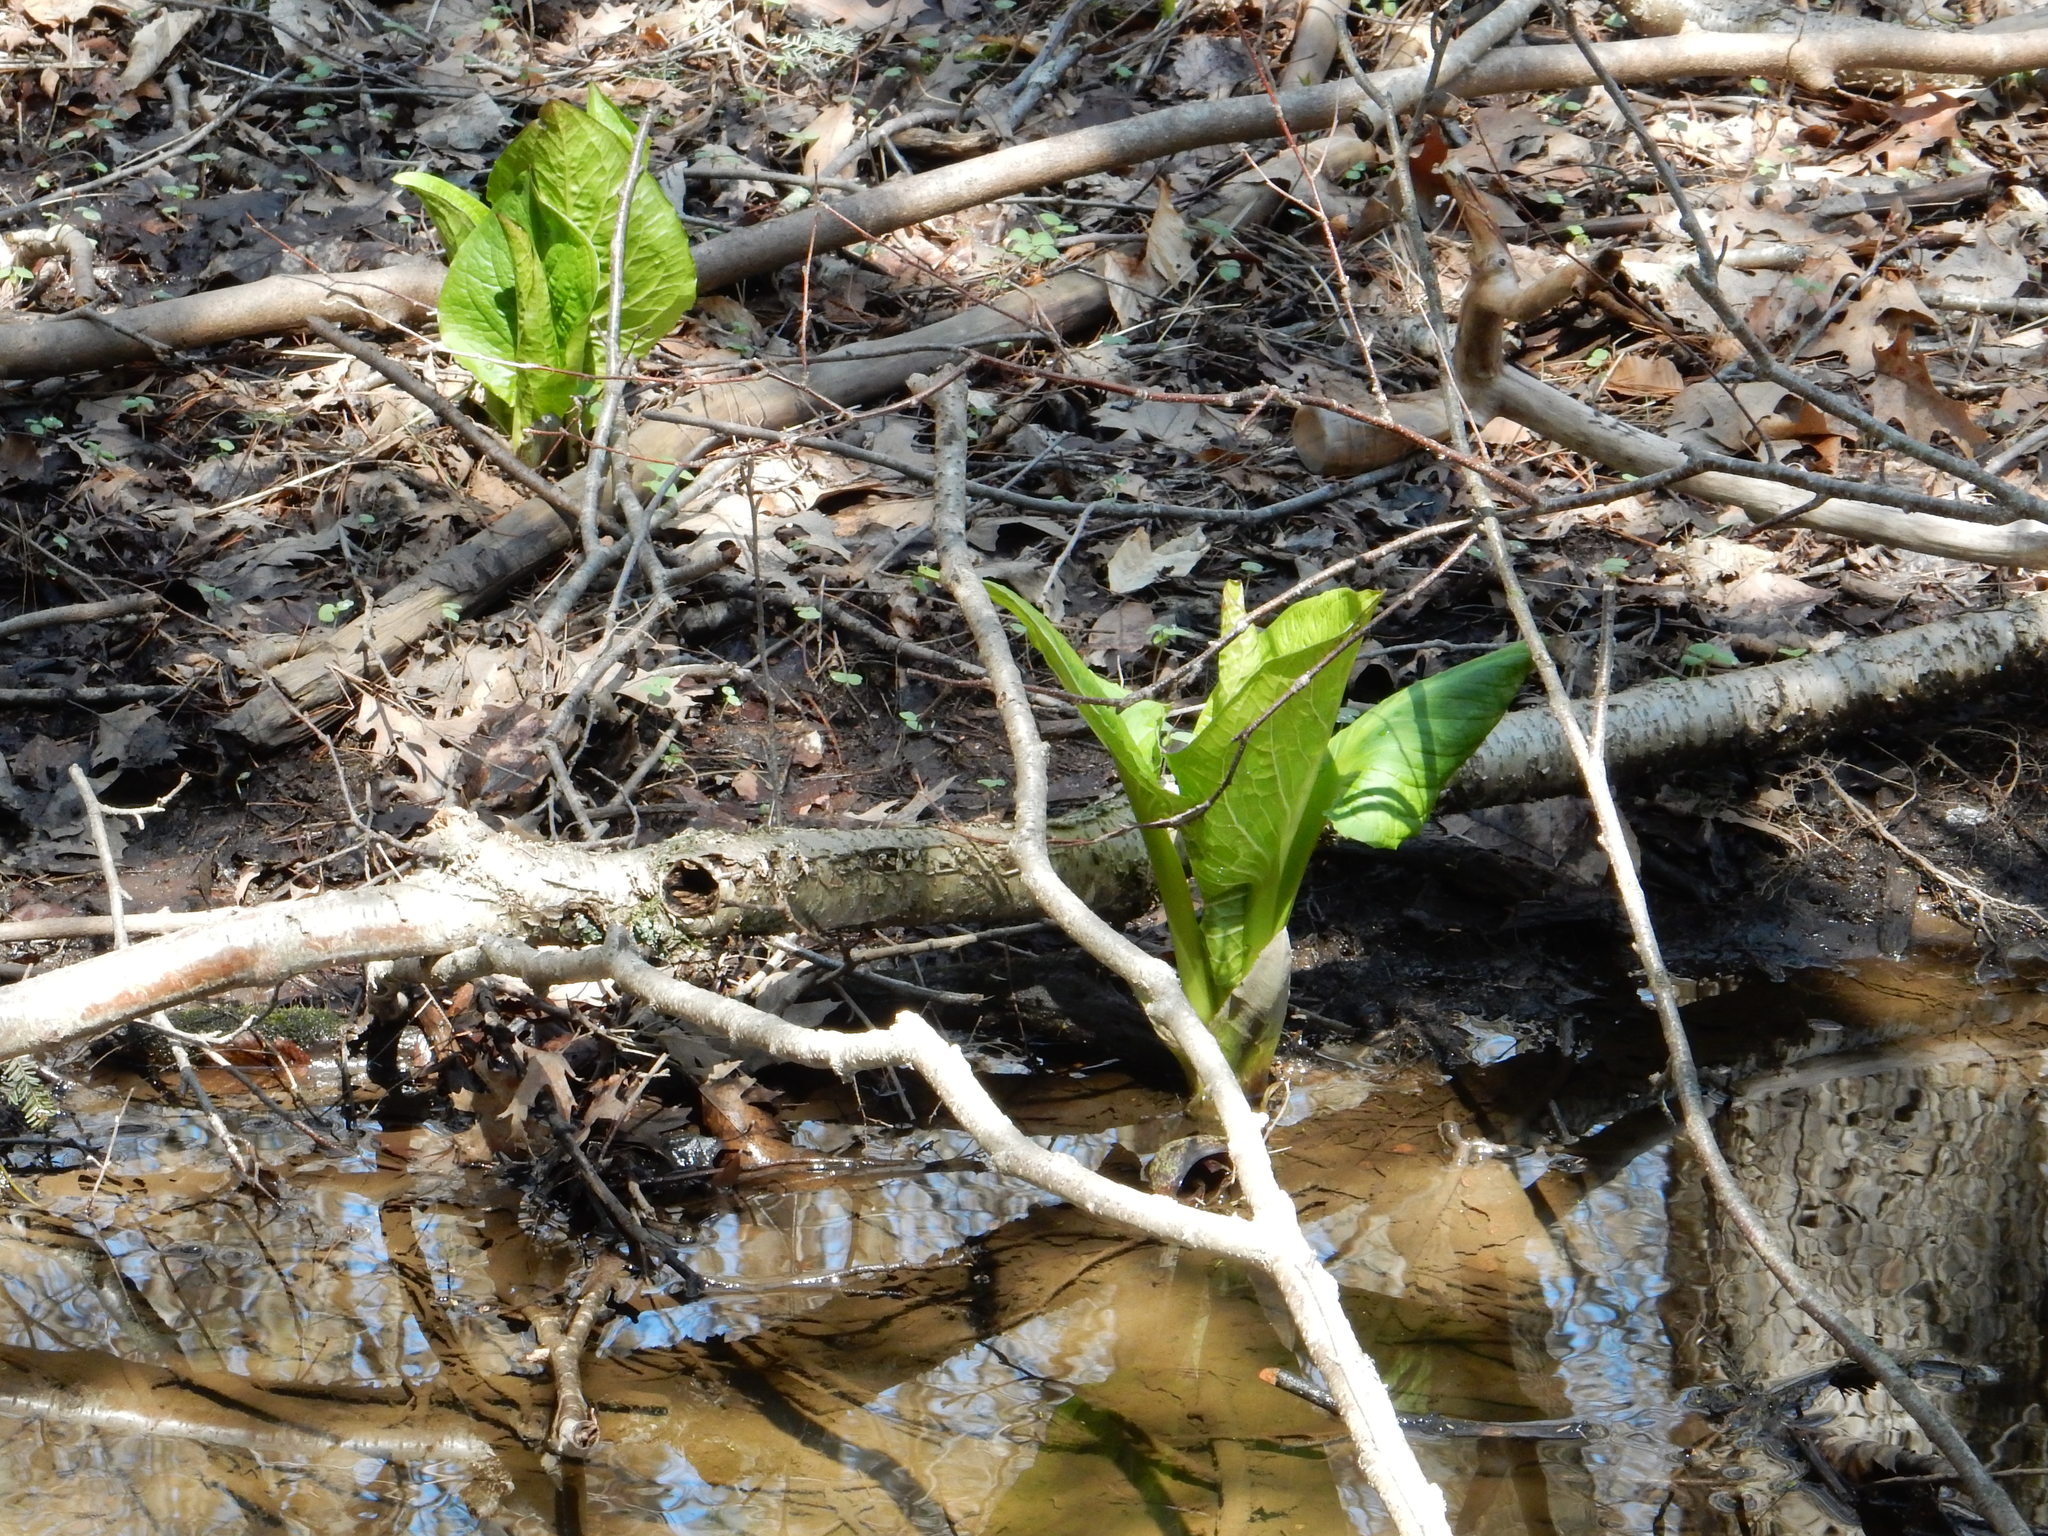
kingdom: Plantae
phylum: Tracheophyta
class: Liliopsida
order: Alismatales
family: Araceae
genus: Symplocarpus
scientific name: Symplocarpus foetidus
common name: Eastern skunk cabbage
